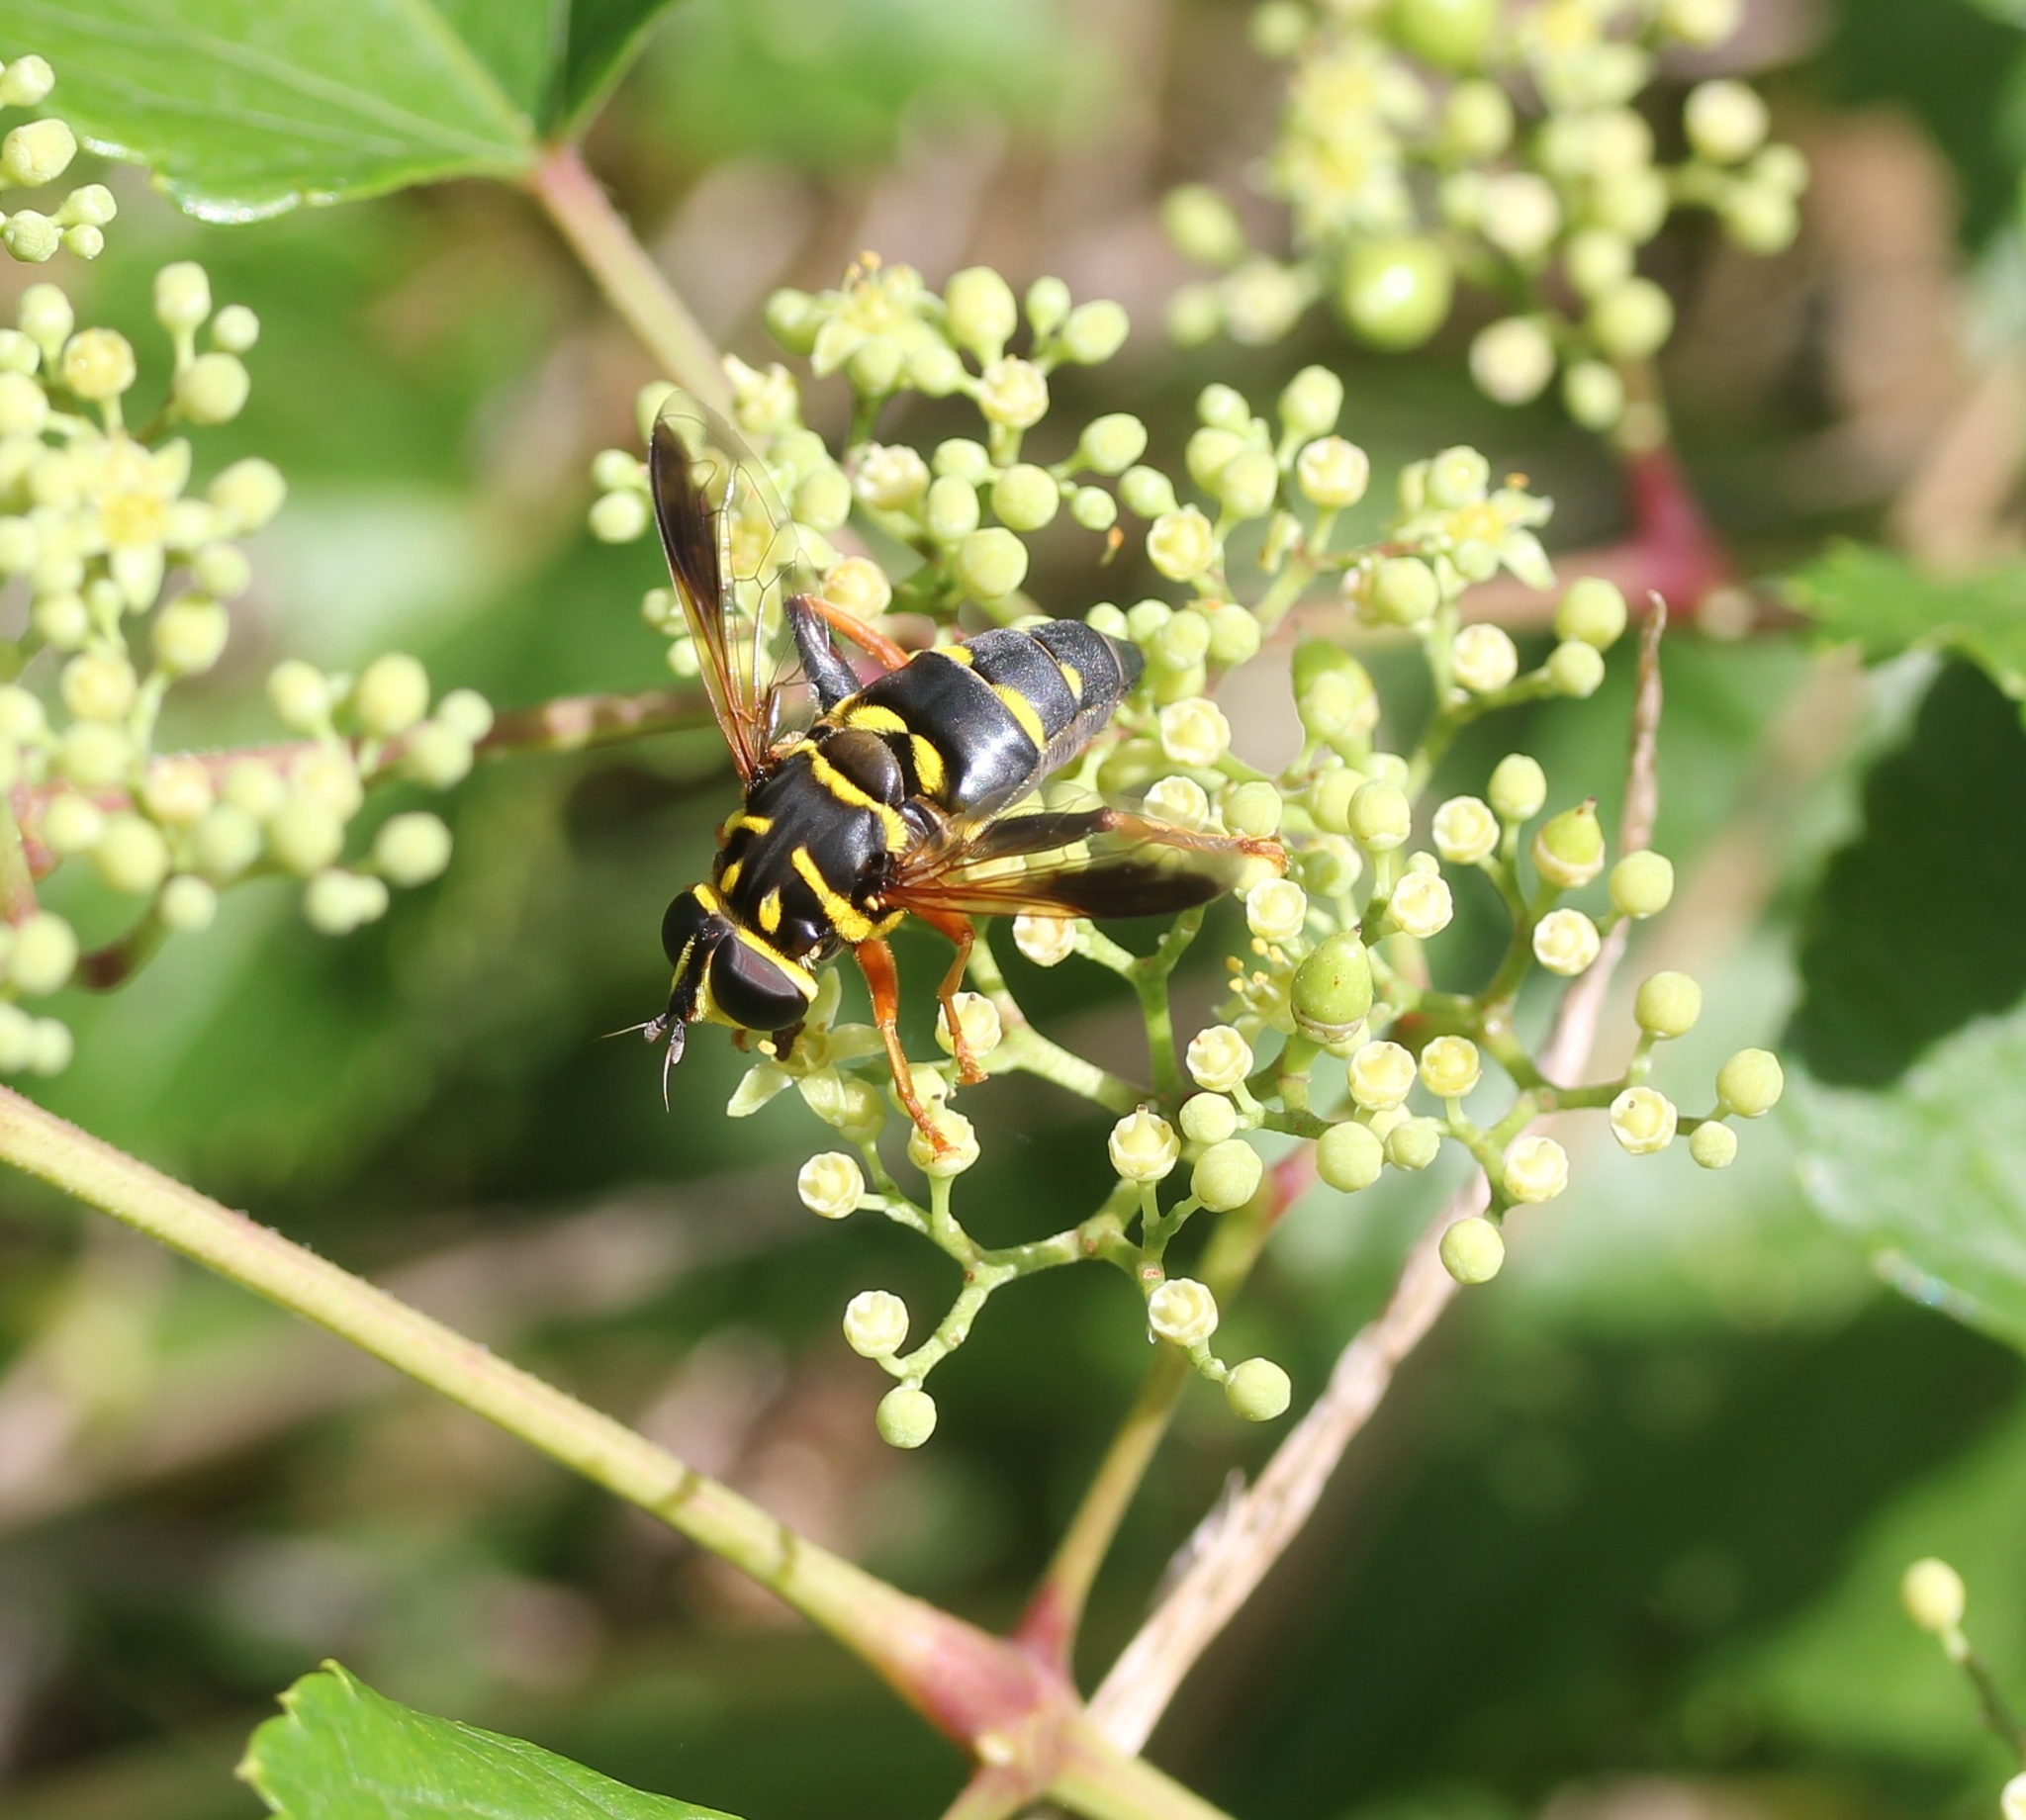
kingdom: Animalia
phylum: Arthropoda
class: Insecta
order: Diptera
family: Syrphidae
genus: Meromacrus
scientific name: Meromacrus acutus
